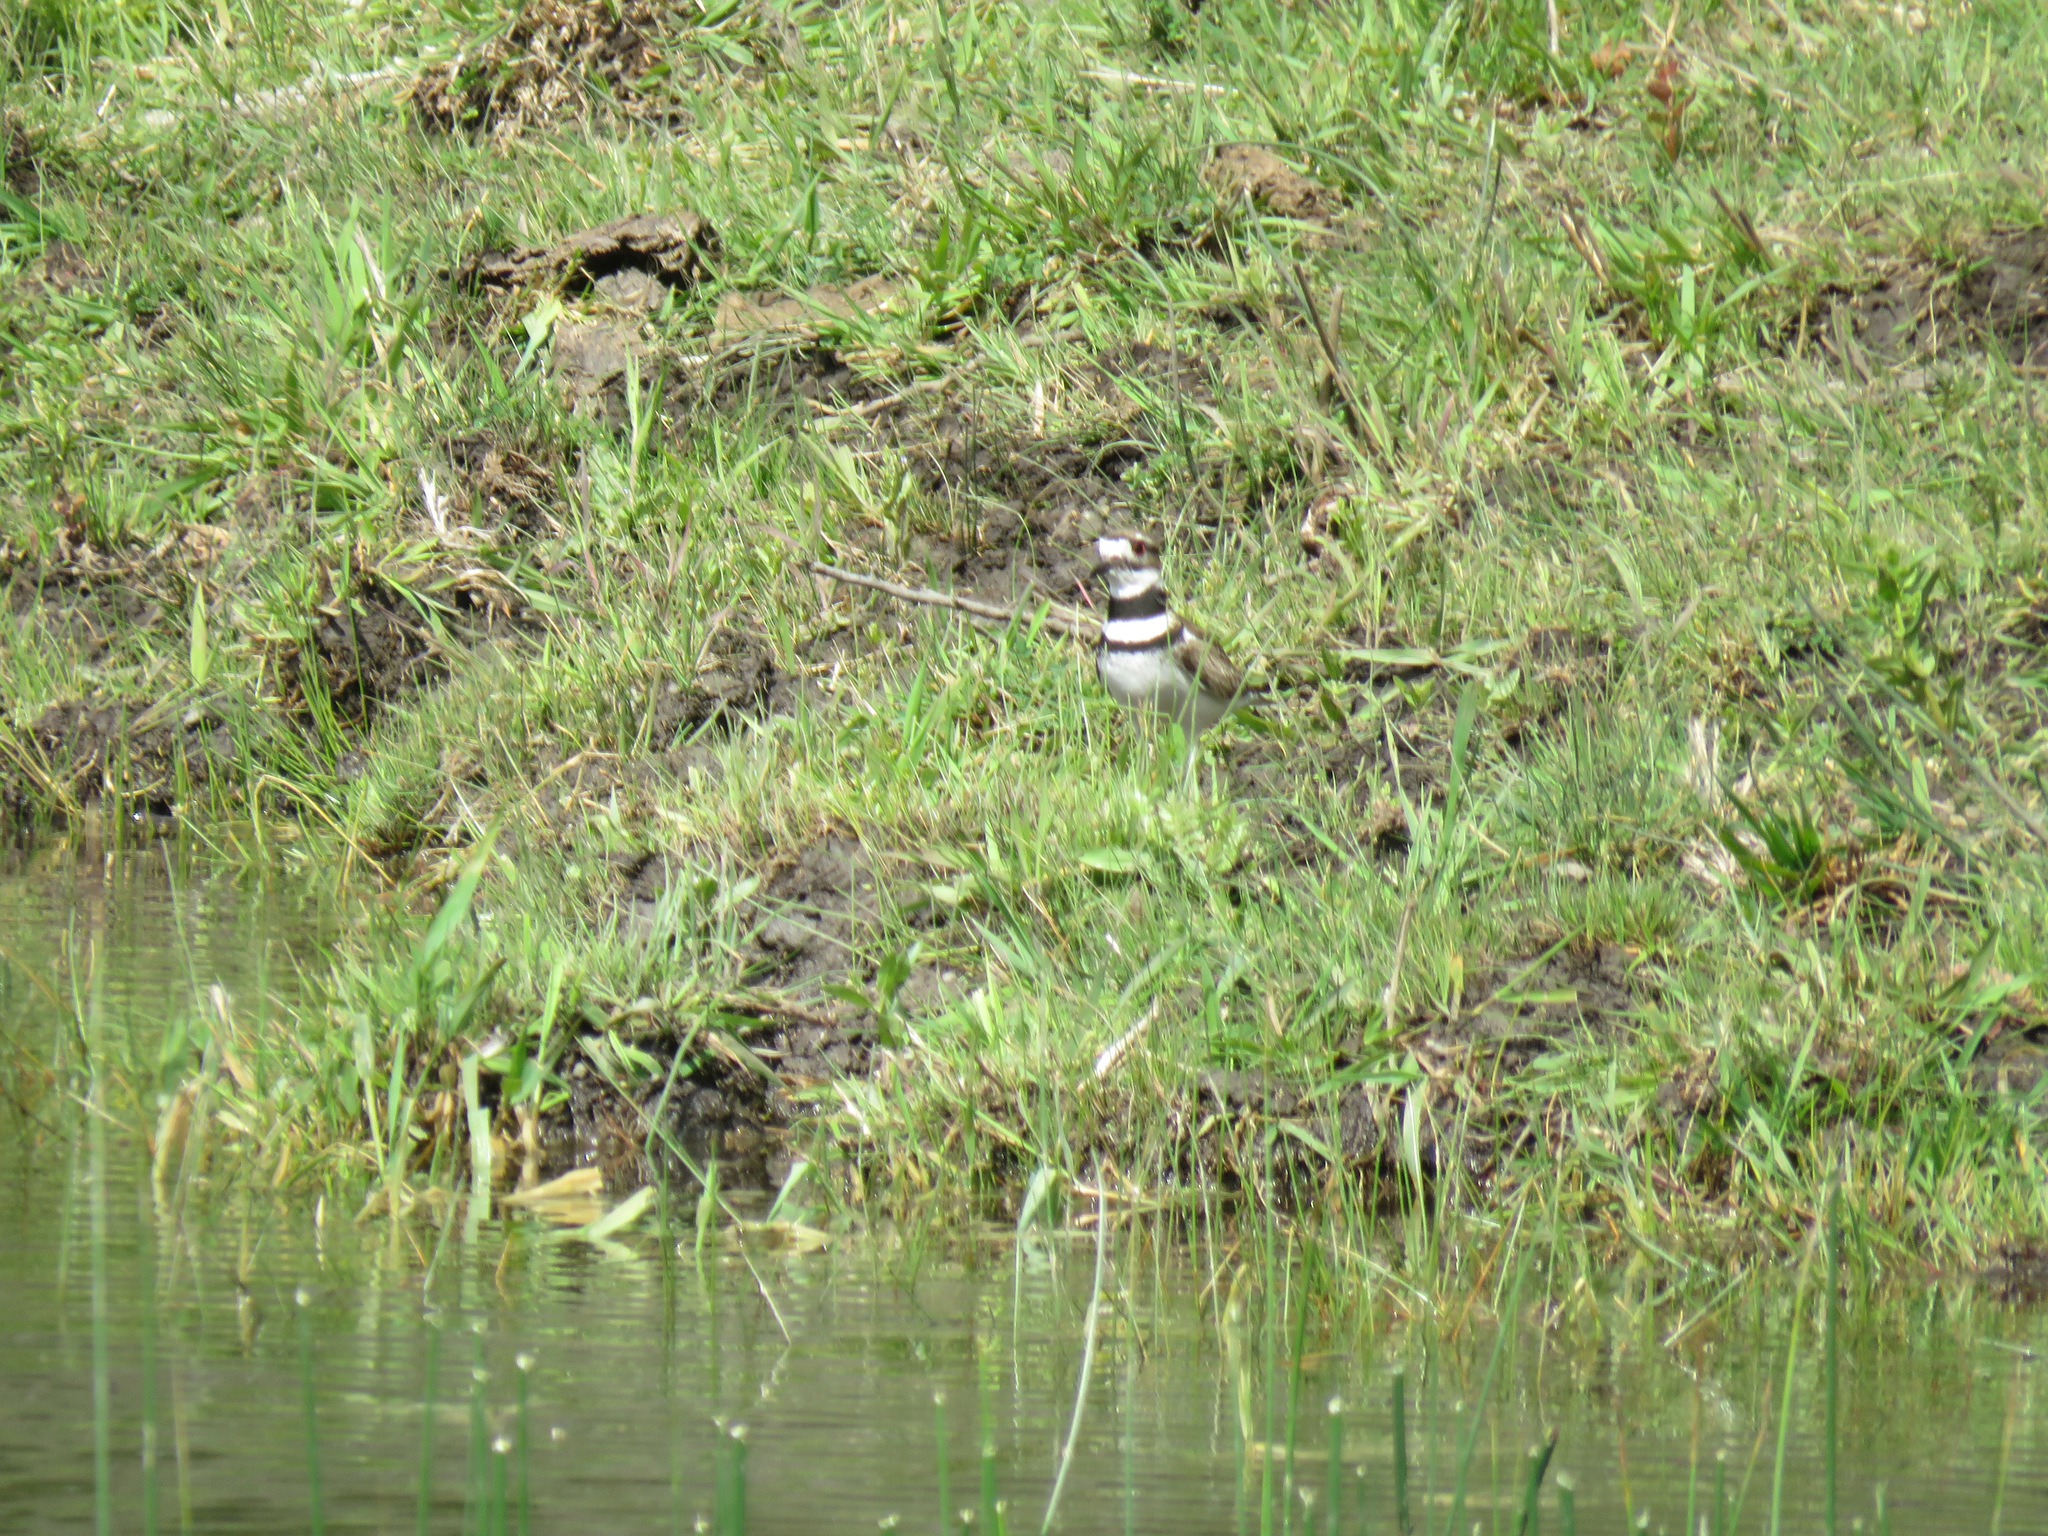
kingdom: Animalia
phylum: Chordata
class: Aves
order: Charadriiformes
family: Charadriidae
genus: Charadrius
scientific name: Charadrius vociferus
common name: Killdeer
